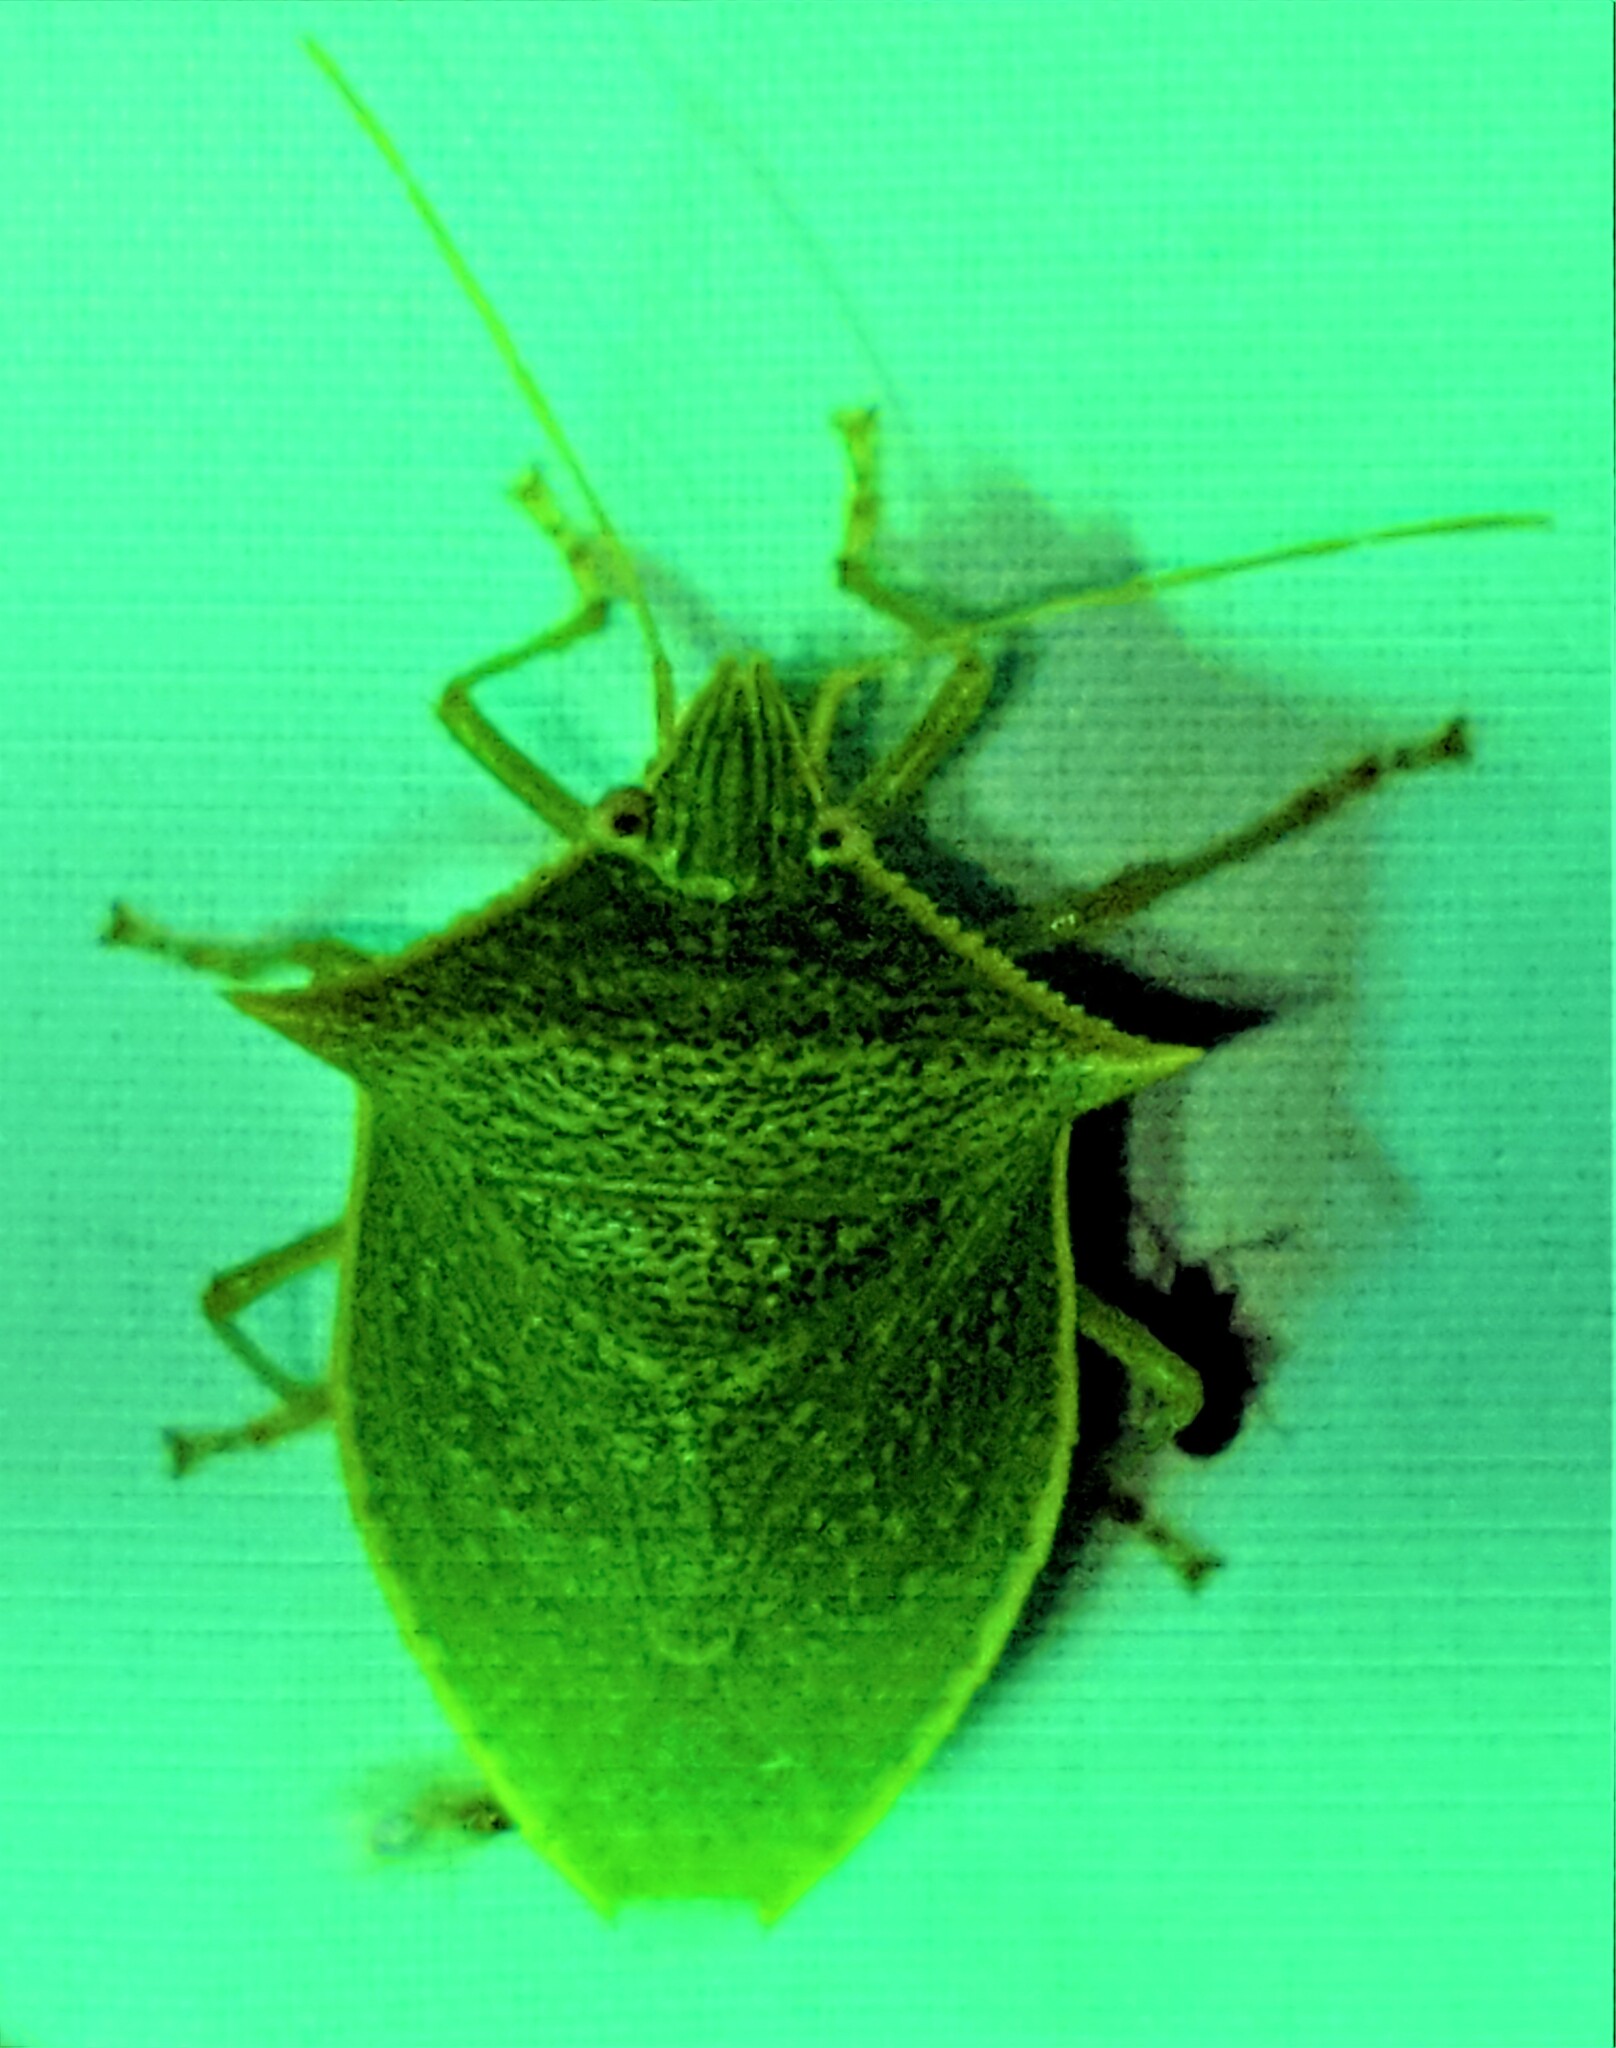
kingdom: Animalia
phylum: Arthropoda
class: Insecta
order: Hemiptera
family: Pentatomidae
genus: Loxa
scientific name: Loxa viridis
